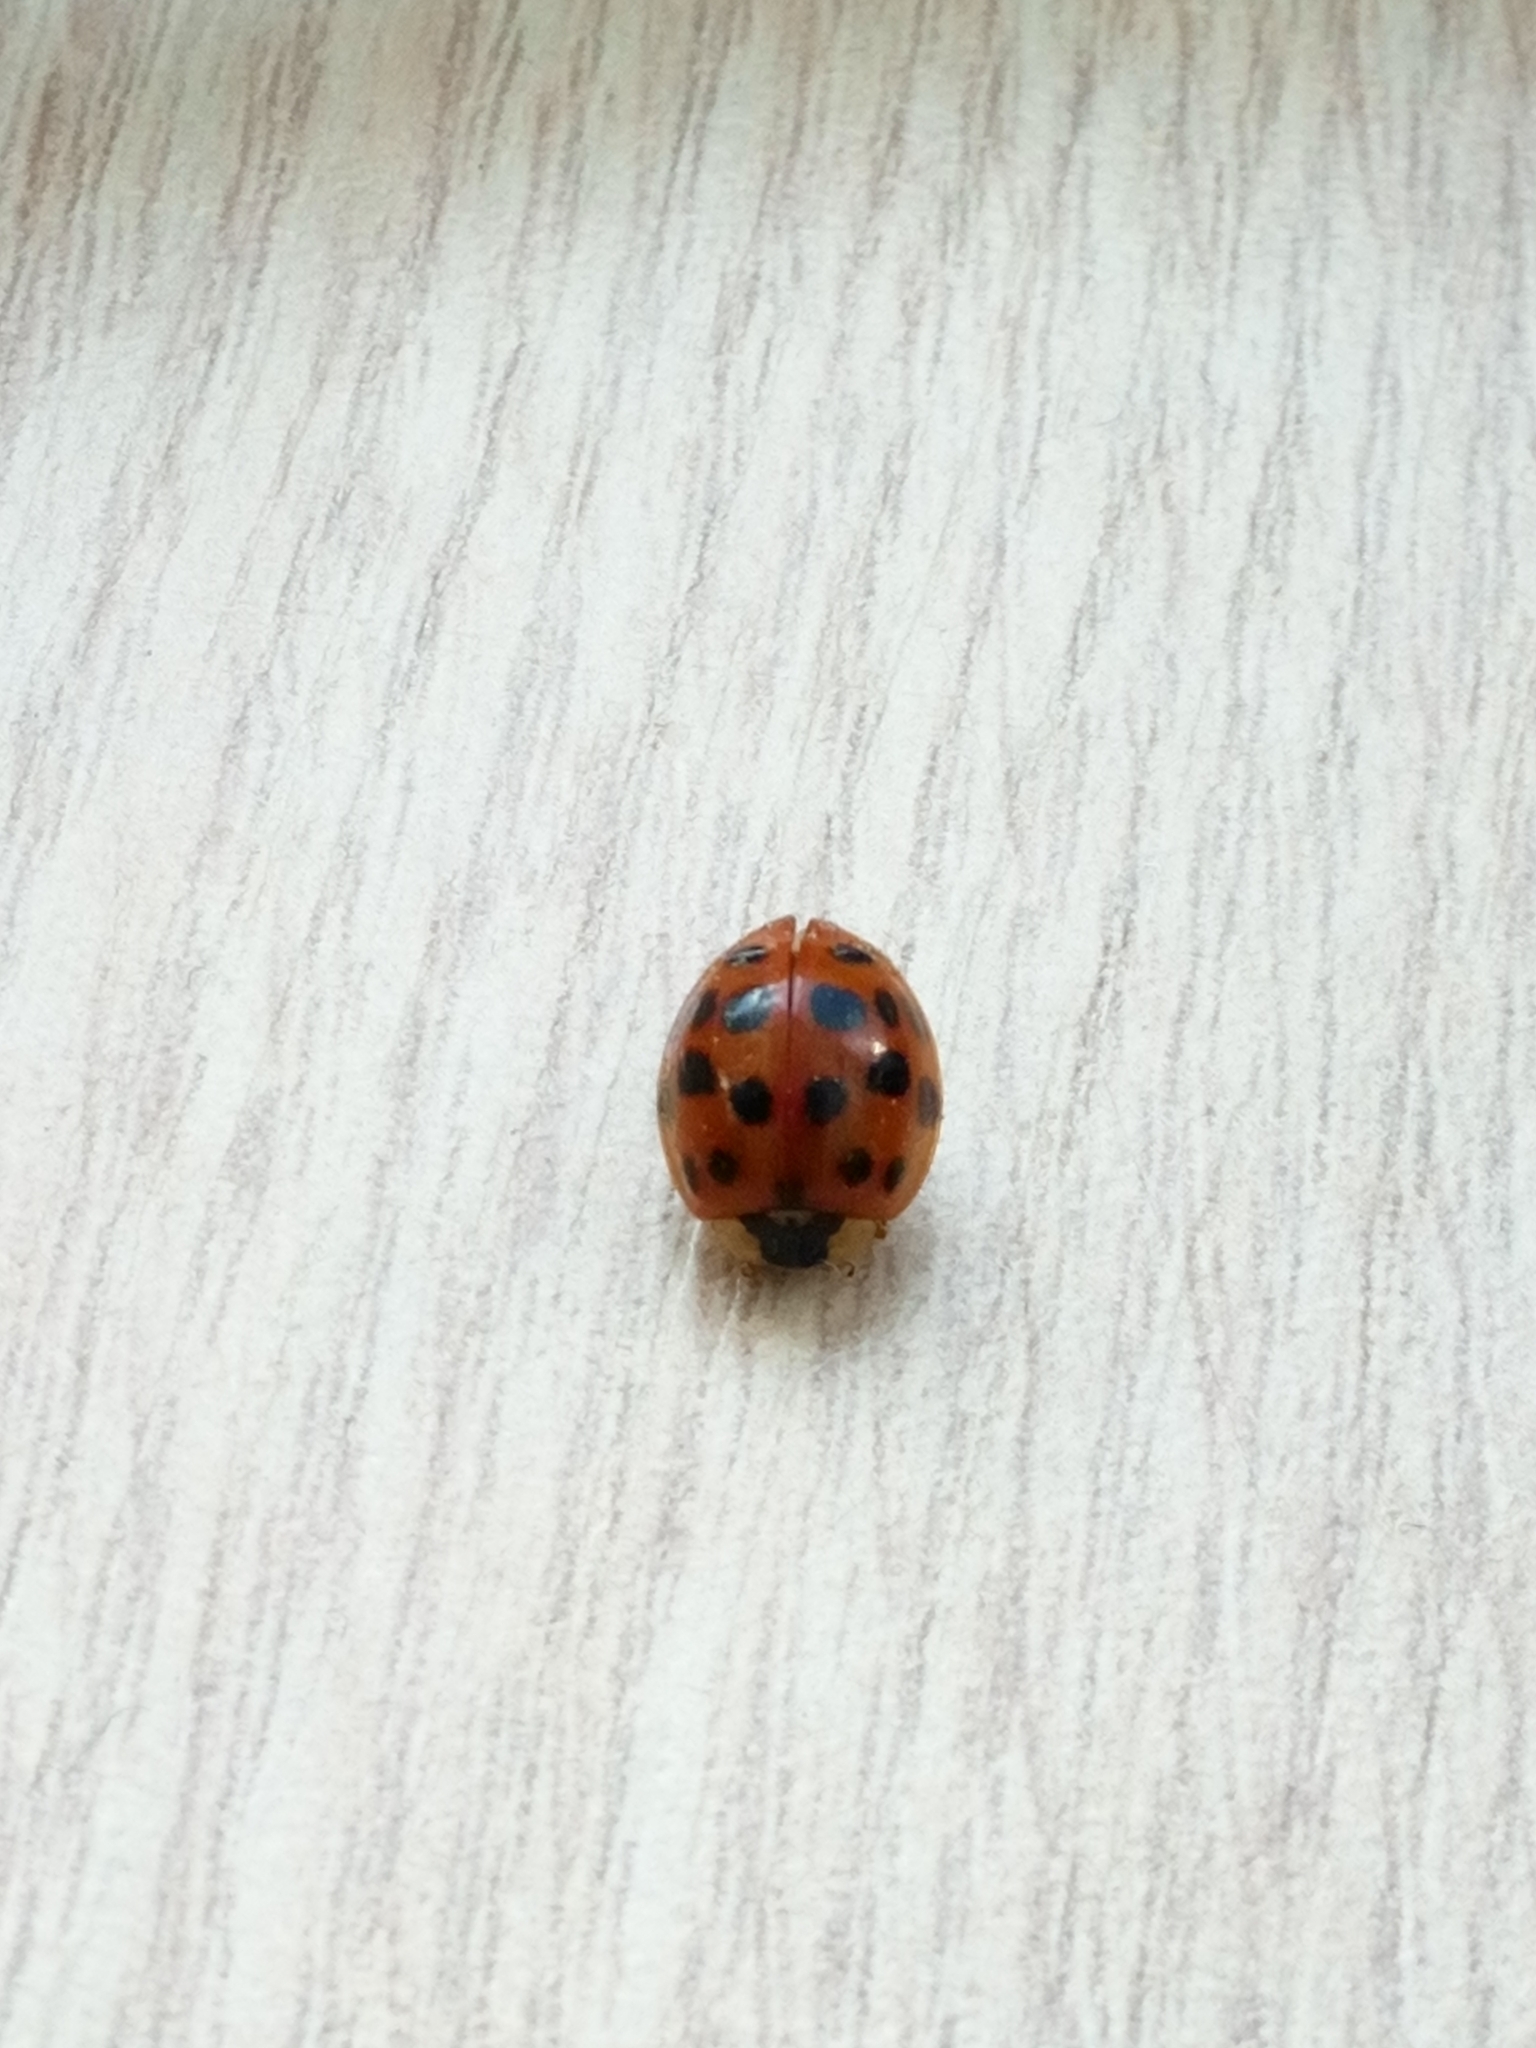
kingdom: Animalia
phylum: Arthropoda
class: Insecta
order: Coleoptera
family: Coccinellidae
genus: Harmonia
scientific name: Harmonia axyridis
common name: Harlequin ladybird
